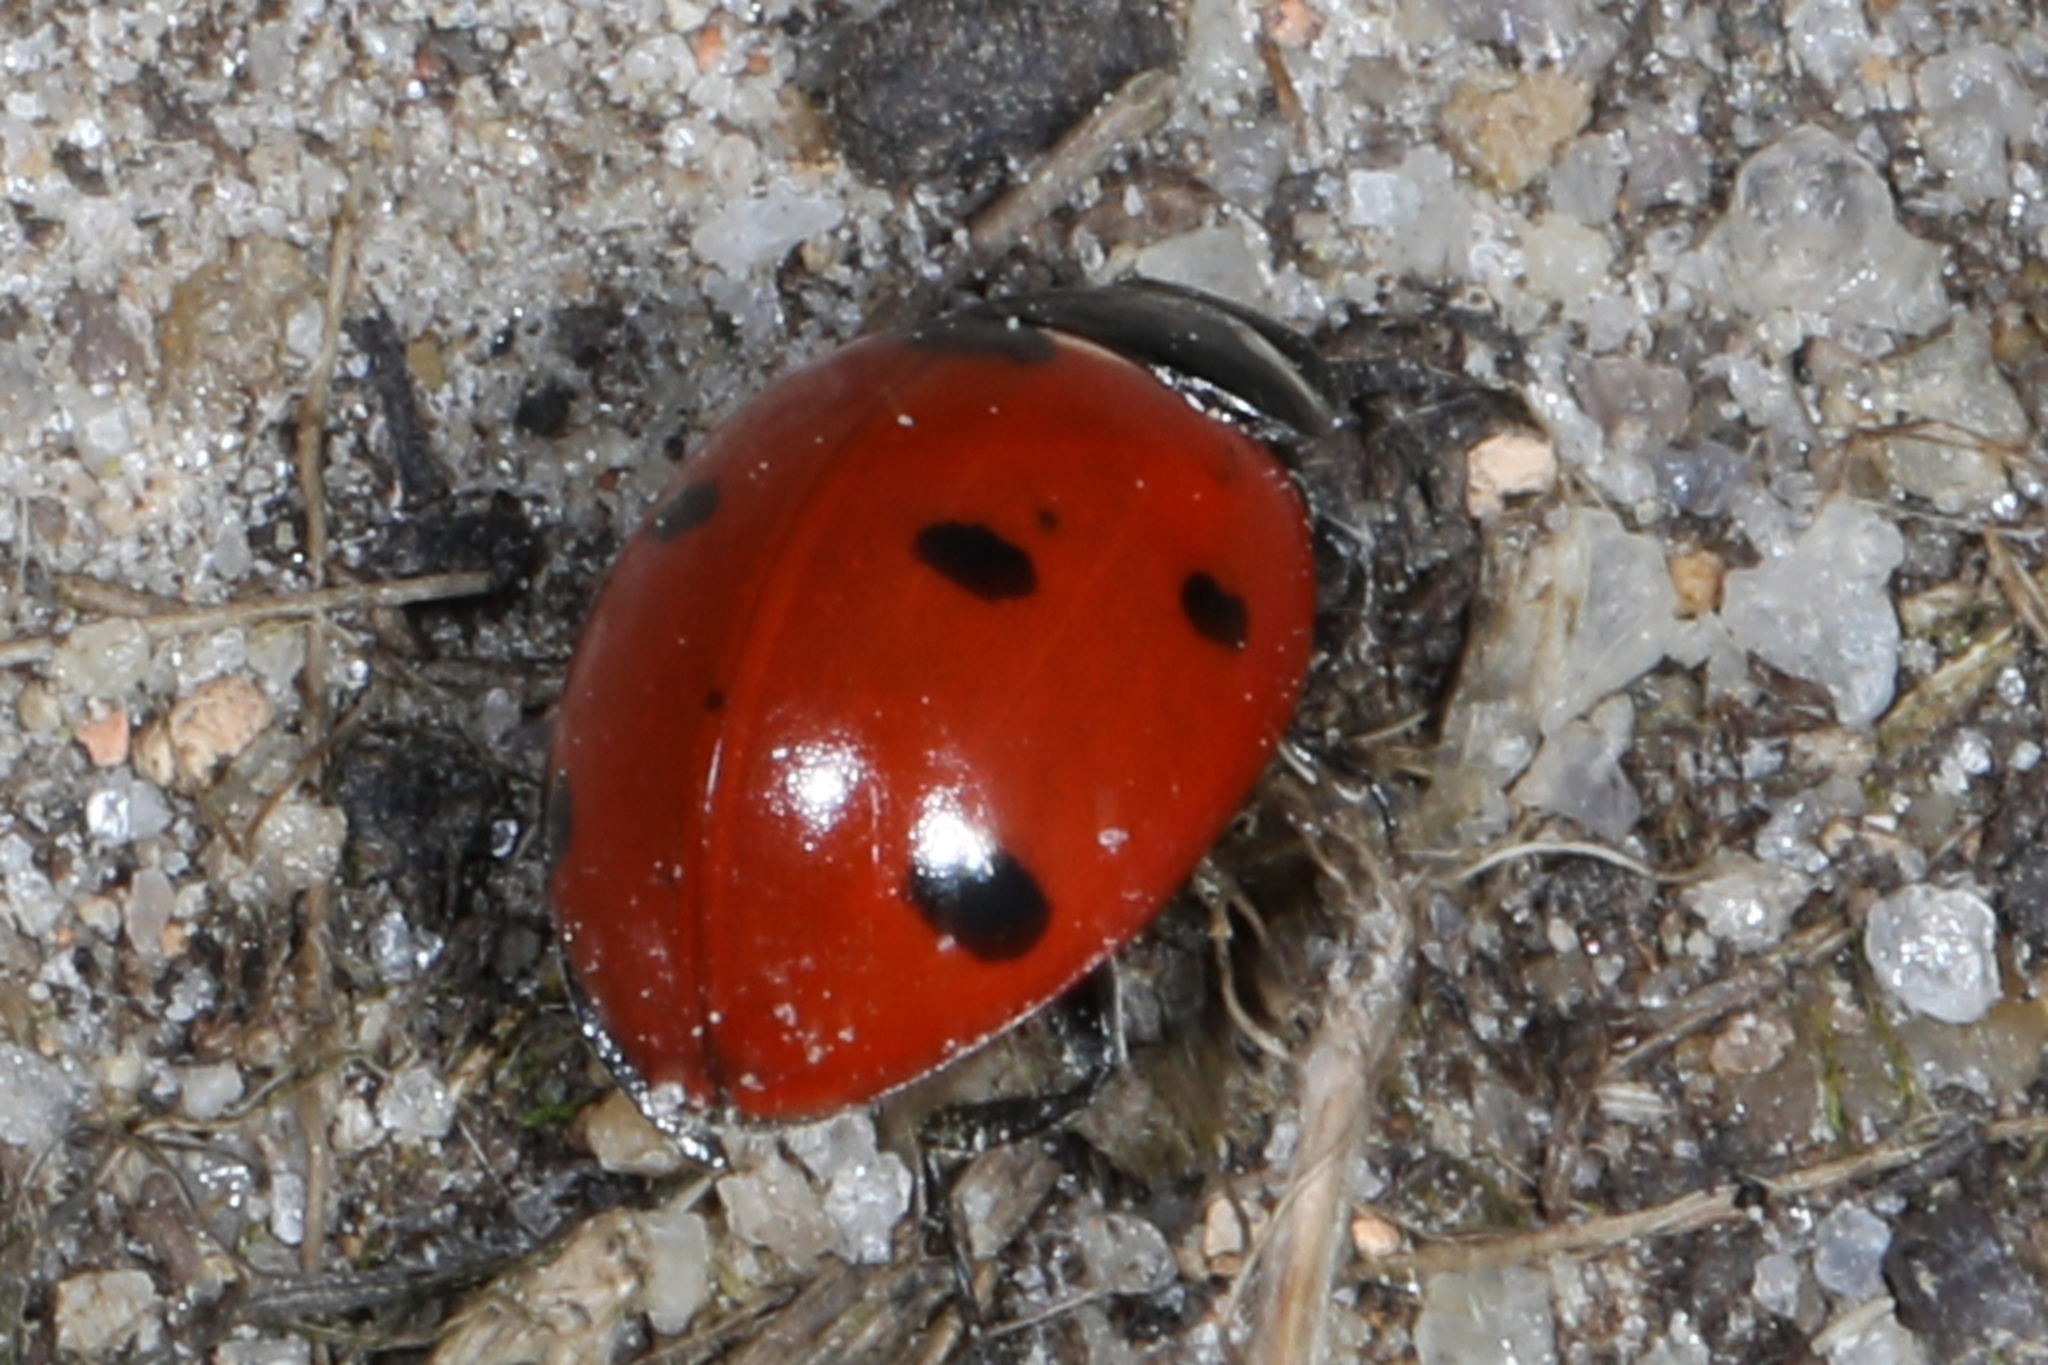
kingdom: Animalia
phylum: Arthropoda
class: Insecta
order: Coleoptera
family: Coccinellidae
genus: Coccinella
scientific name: Coccinella septempunctata
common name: Sevenspotted lady beetle
